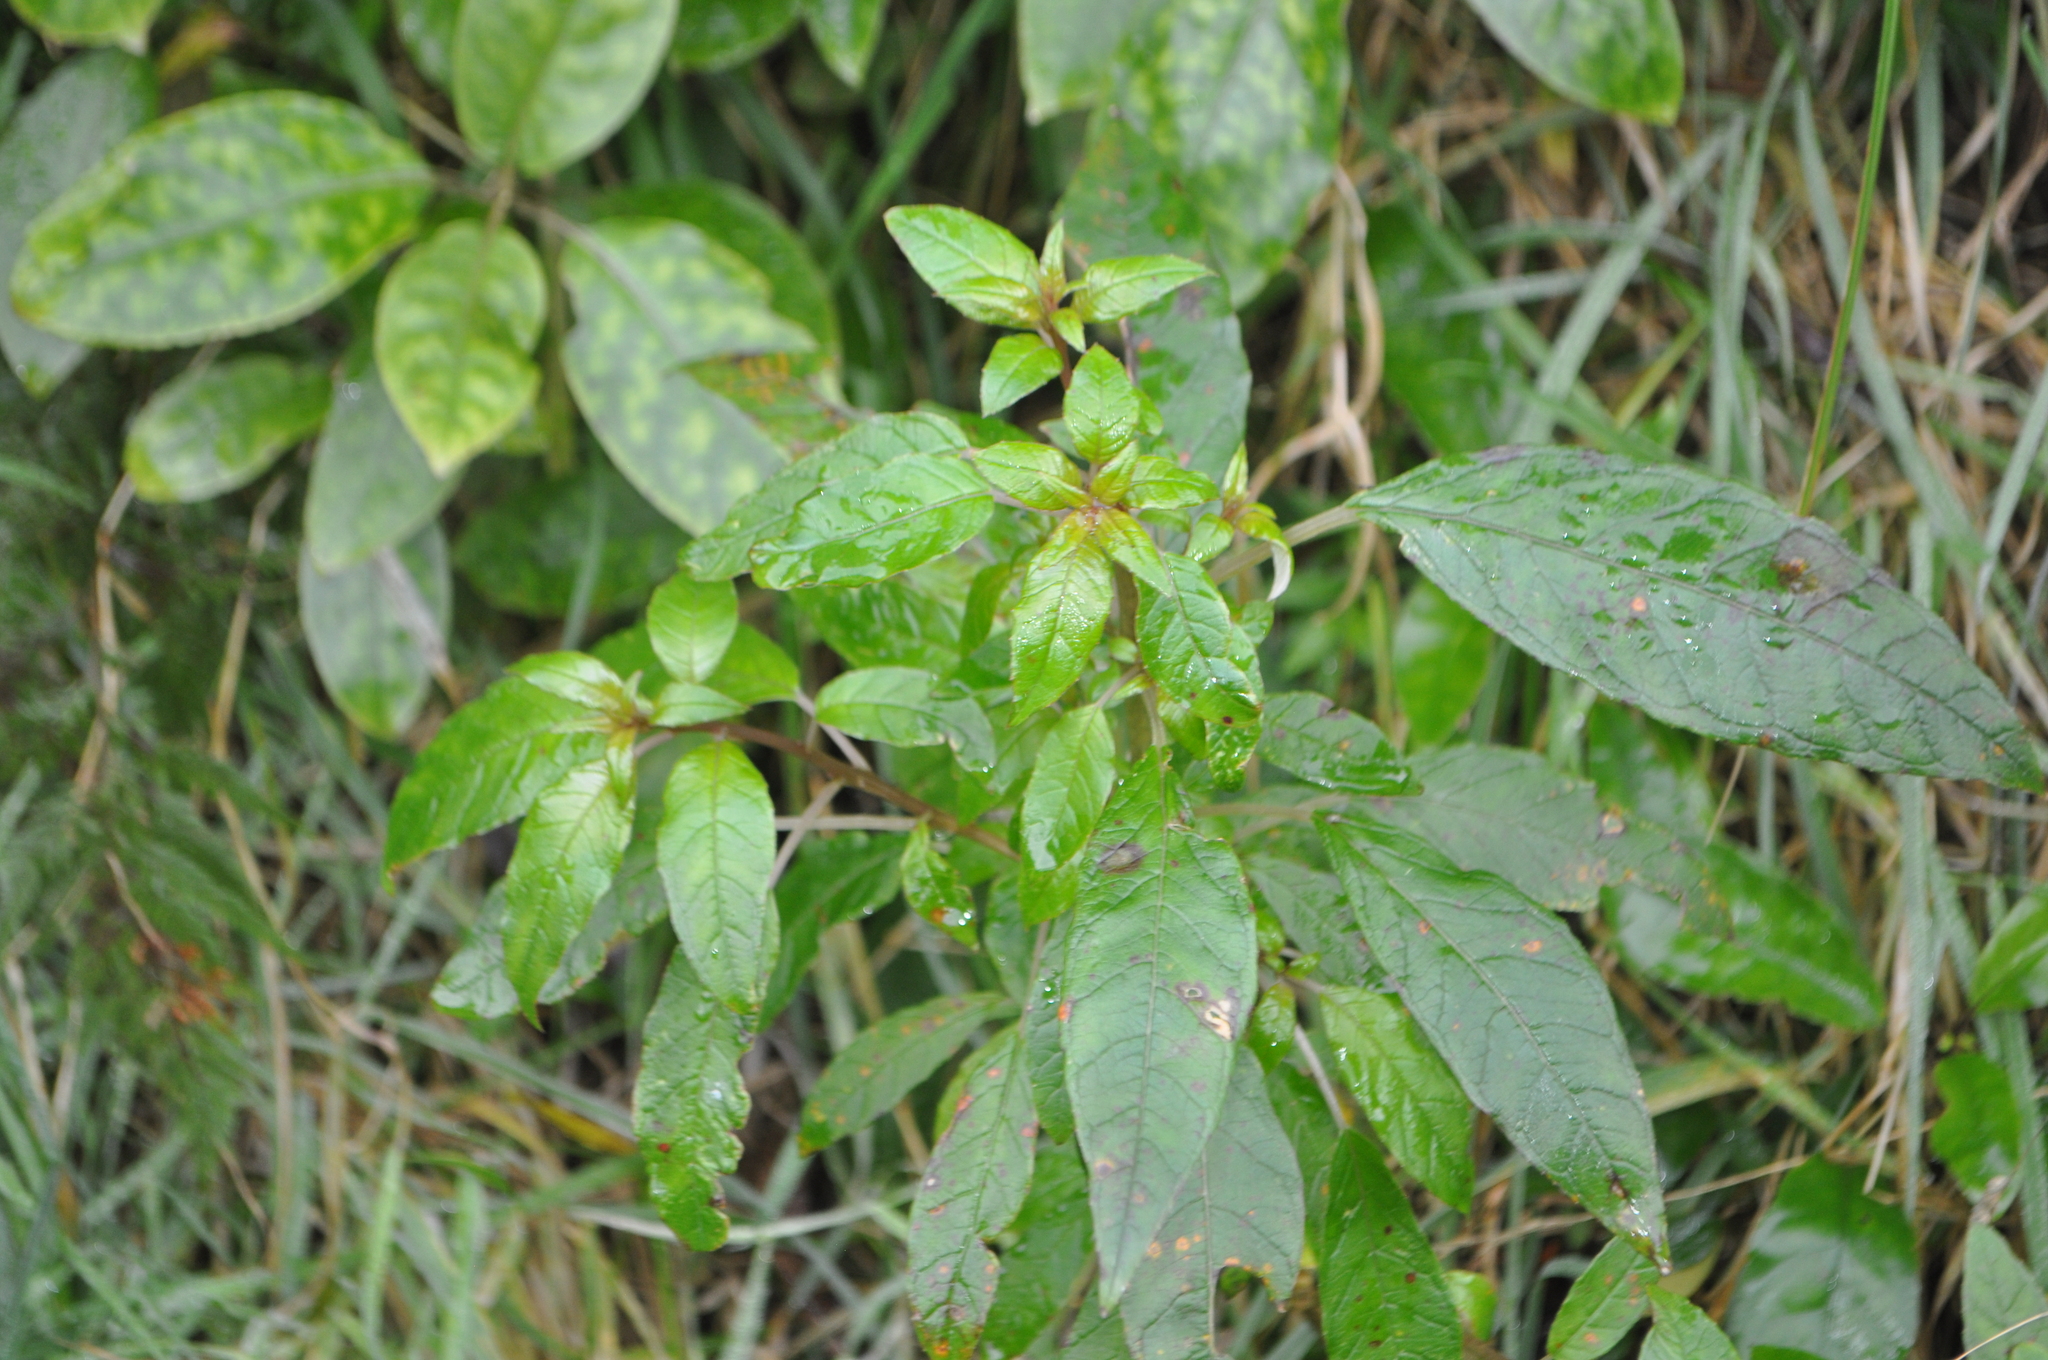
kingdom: Plantae
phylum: Tracheophyta
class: Magnoliopsida
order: Myrtales
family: Onagraceae
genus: Fuchsia
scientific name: Fuchsia excorticata
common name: Tree fuchsia
